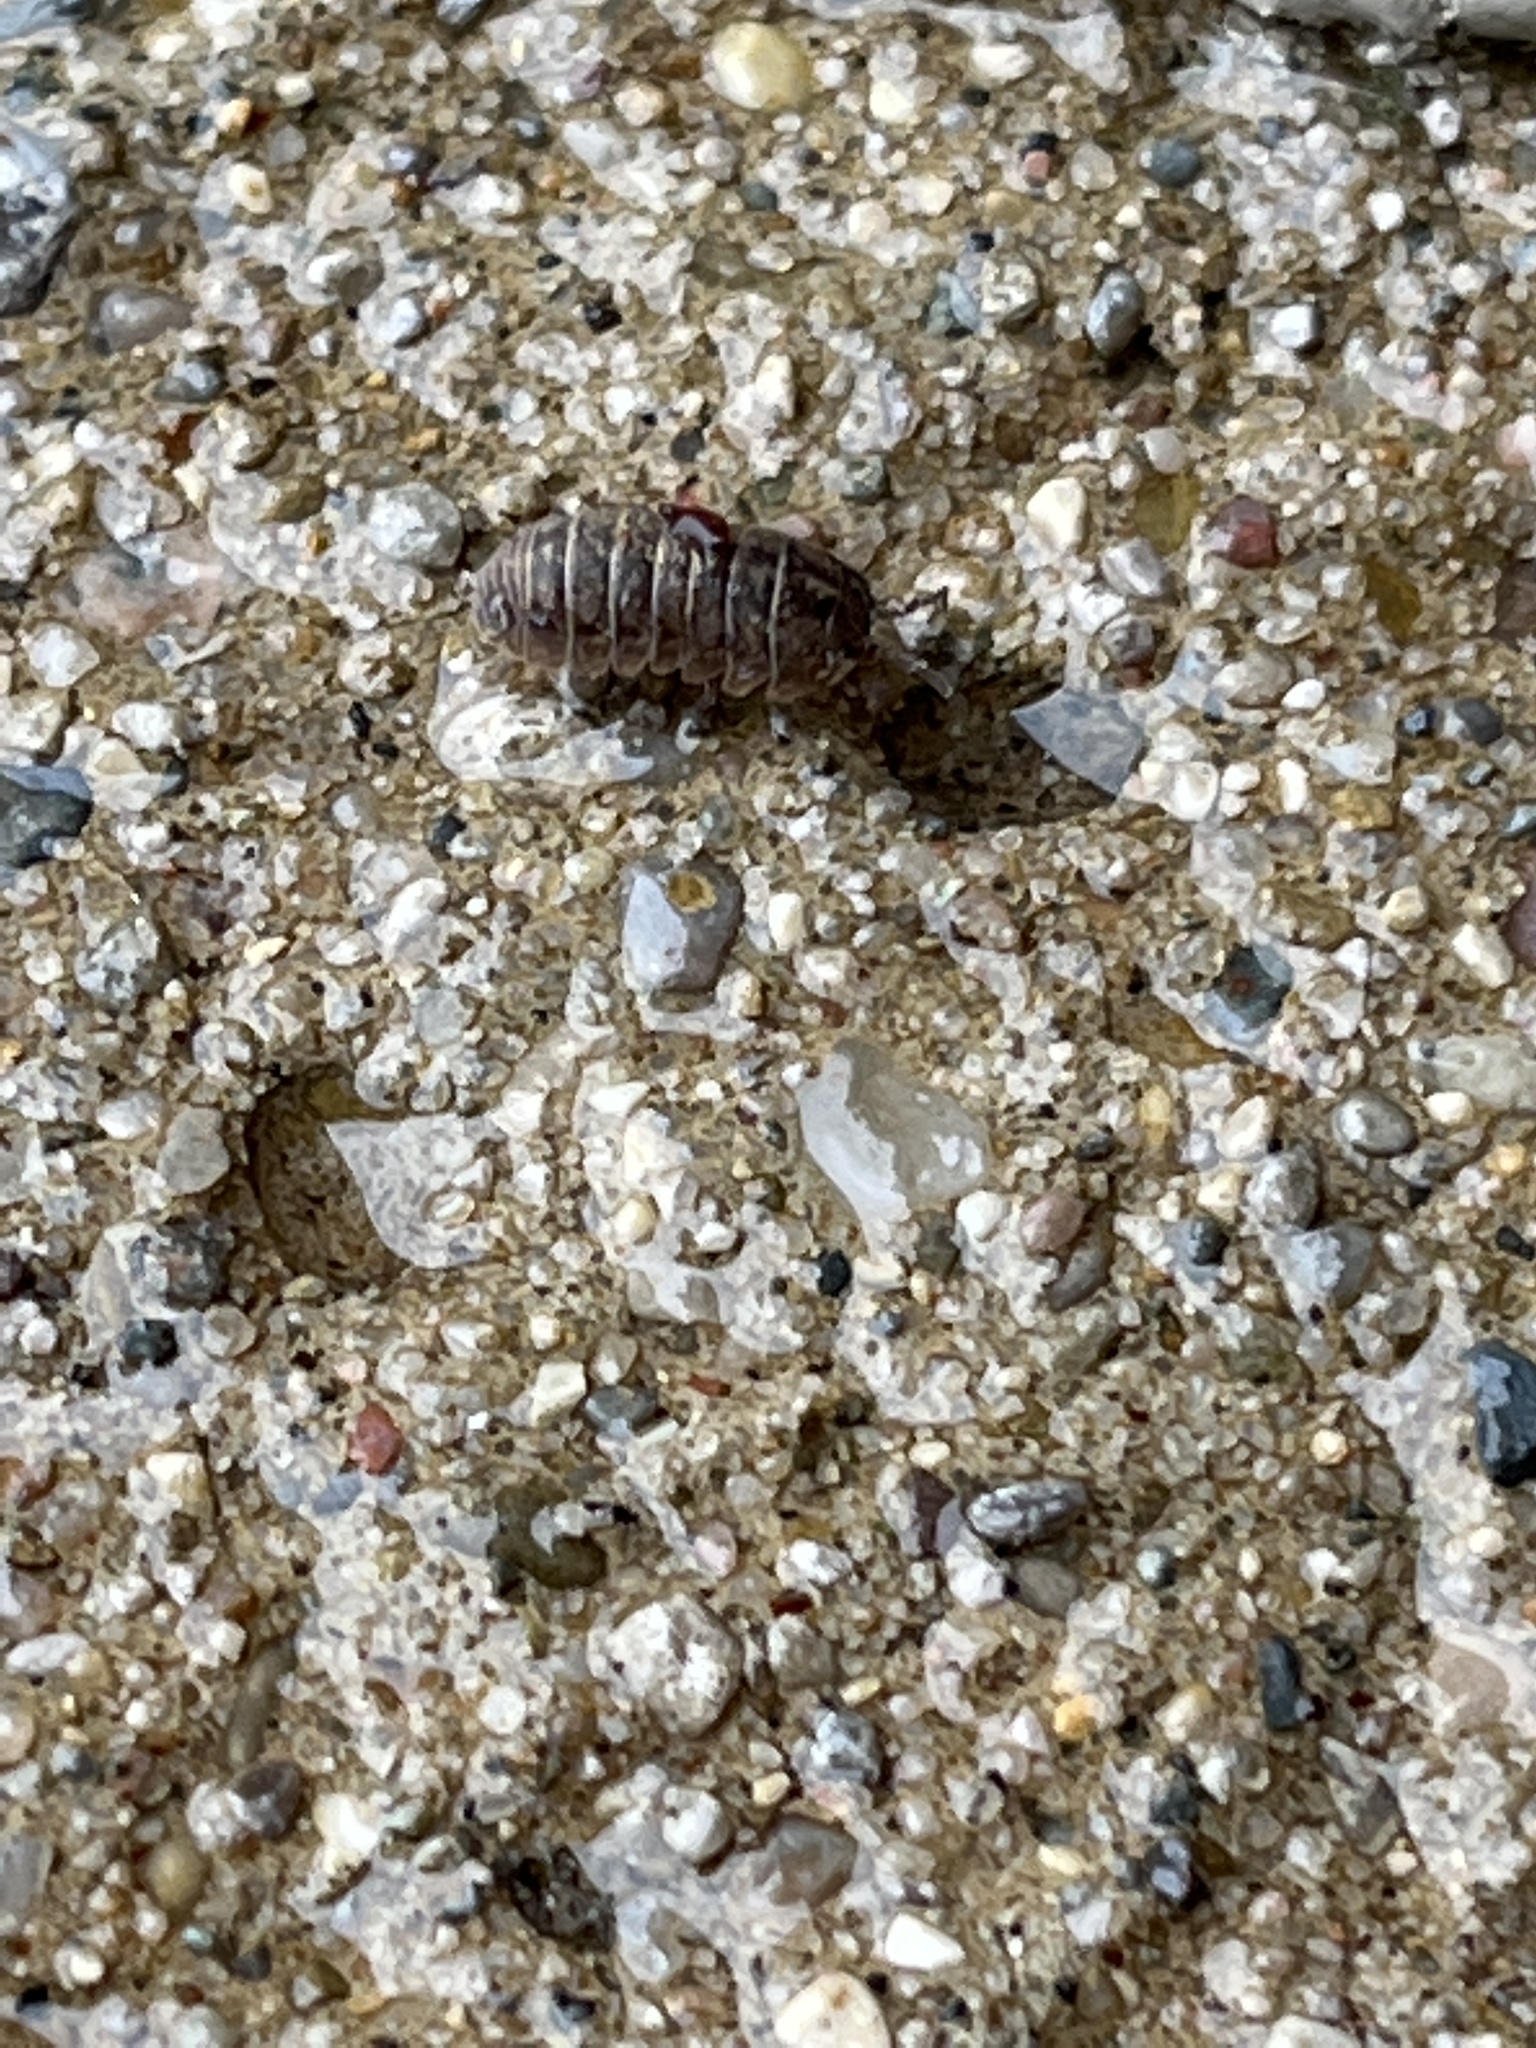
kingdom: Animalia
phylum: Arthropoda
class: Malacostraca
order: Isopoda
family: Armadillidiidae
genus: Armadillidium
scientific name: Armadillidium vulgare
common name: Common pill woodlouse
